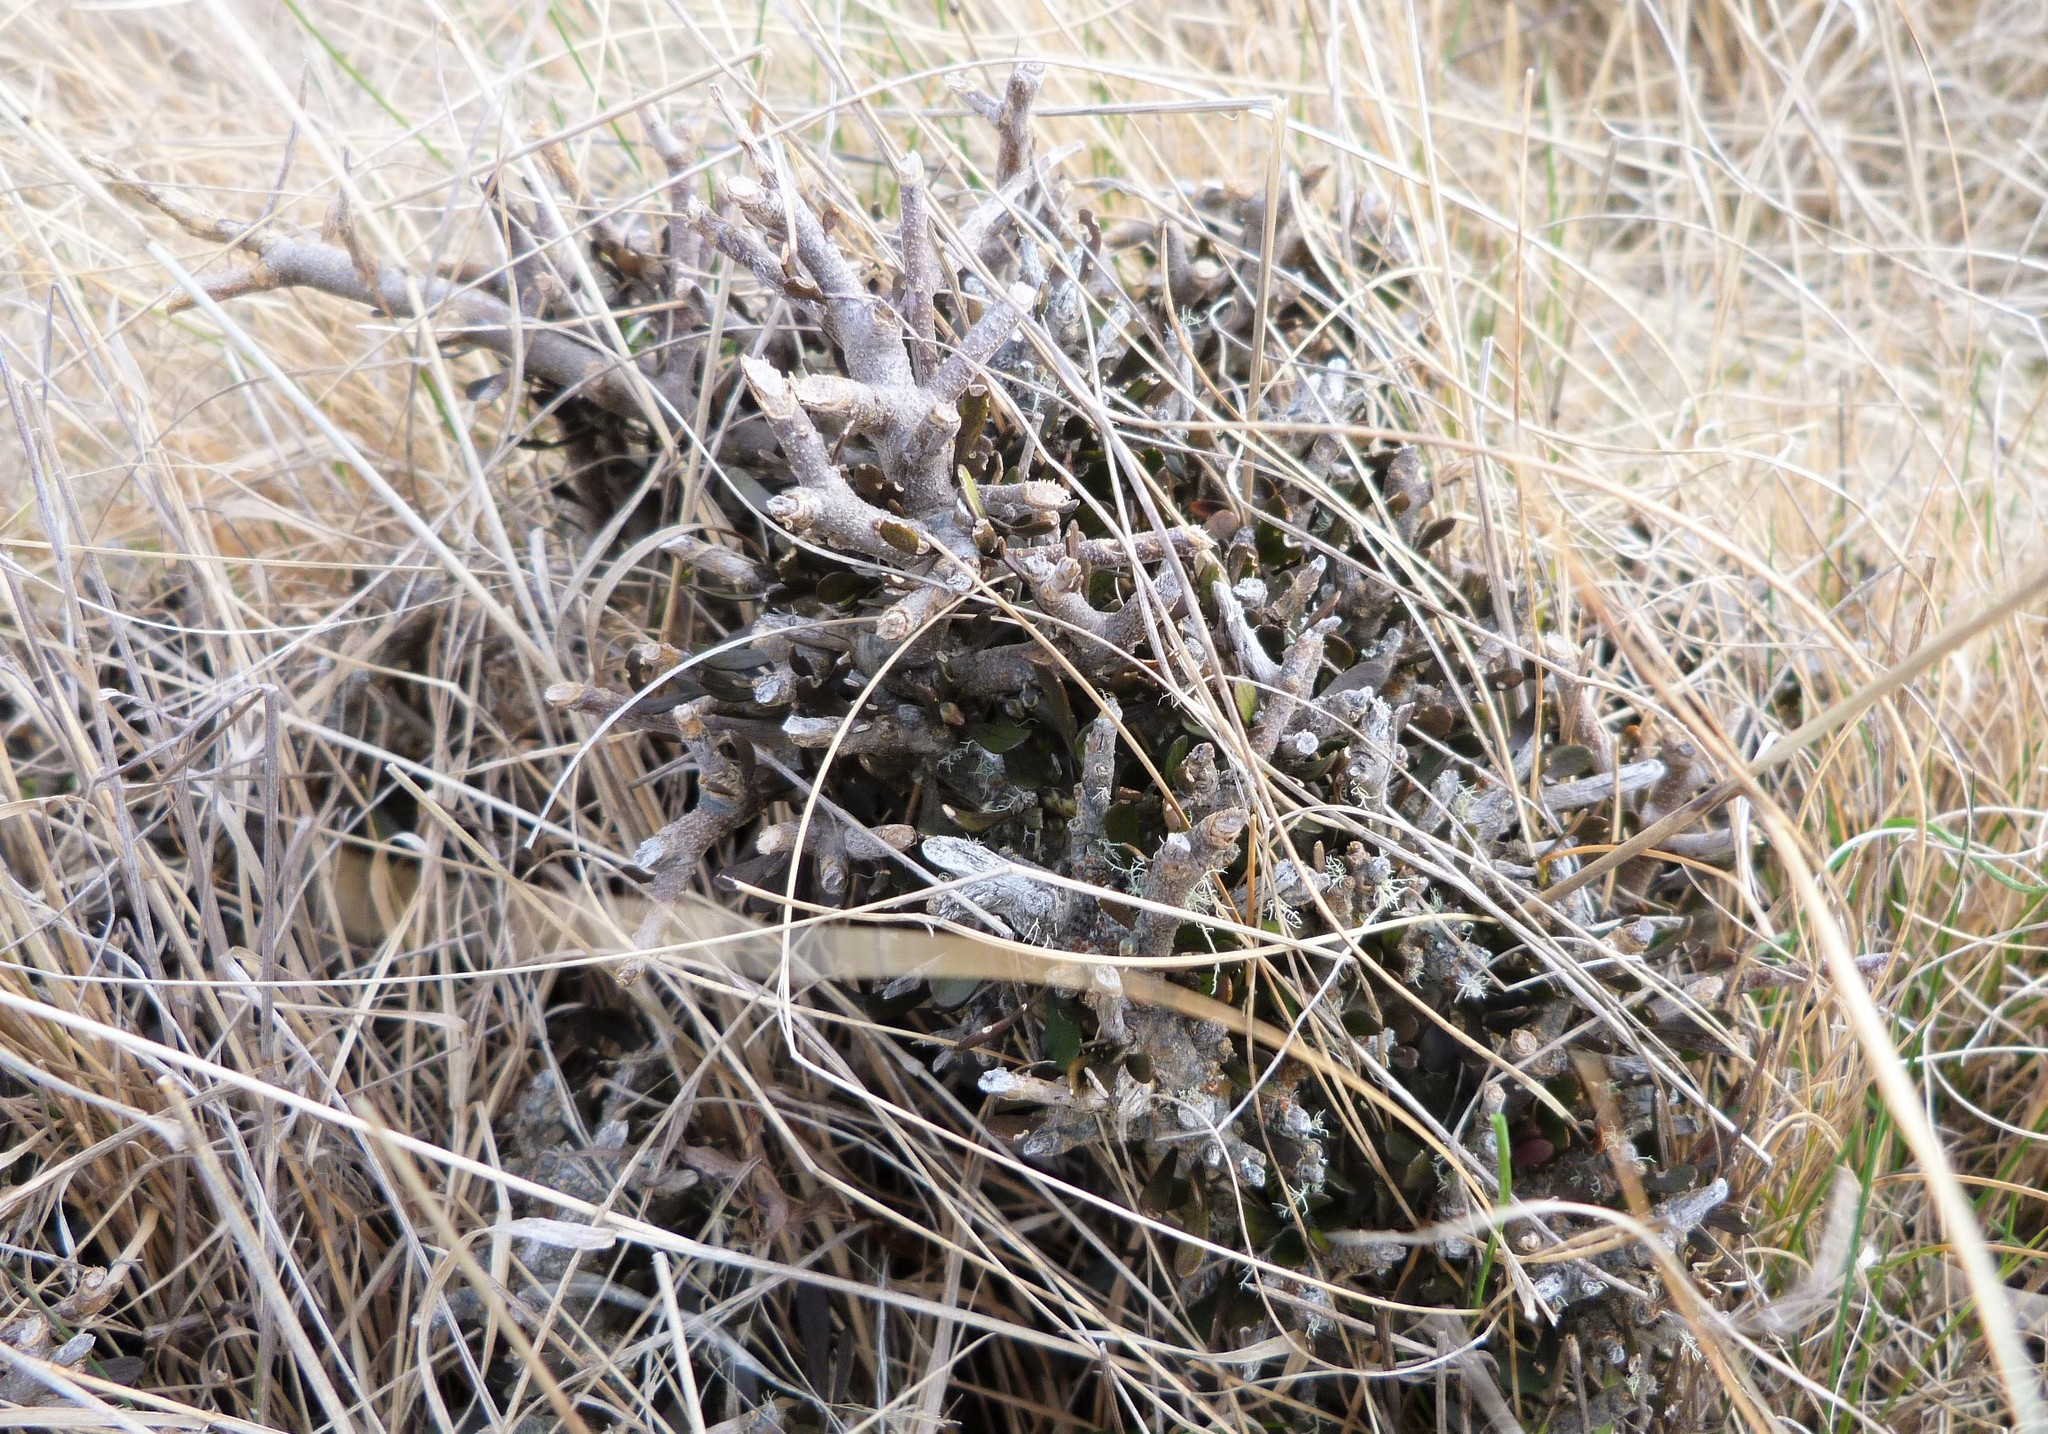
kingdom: Plantae
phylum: Tracheophyta
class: Magnoliopsida
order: Malpighiales
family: Violaceae
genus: Melicytus
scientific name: Melicytus alpinus
